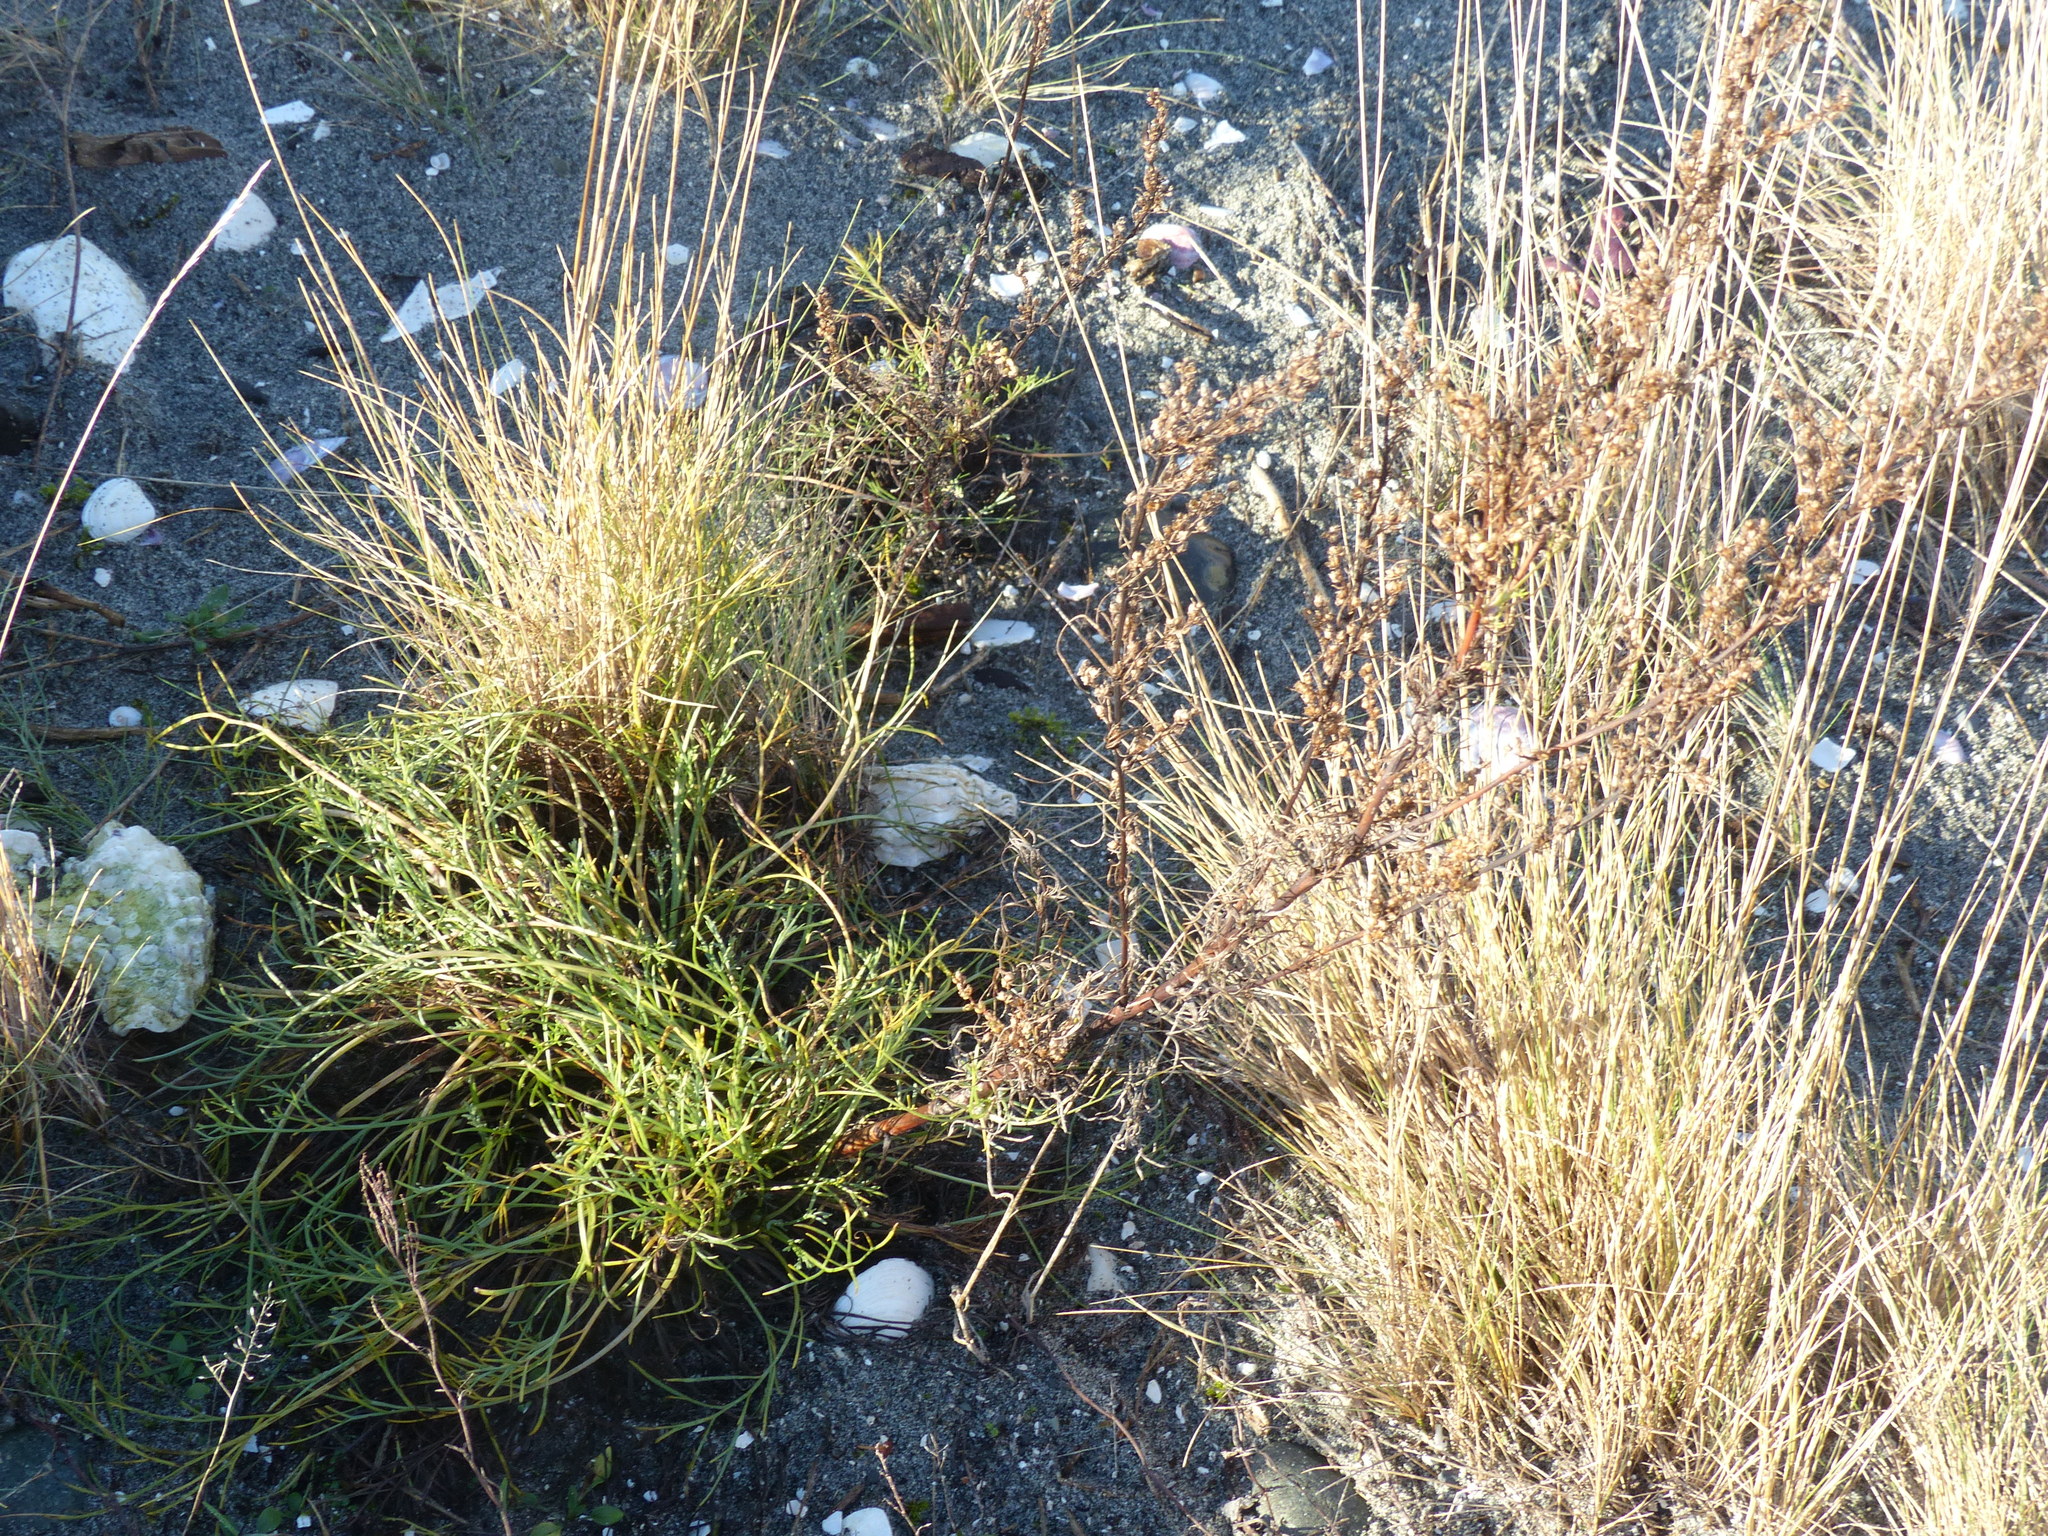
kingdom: Plantae
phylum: Tracheophyta
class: Magnoliopsida
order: Asterales
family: Asteraceae
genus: Artemisia
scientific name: Artemisia campestris
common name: Field wormwood
